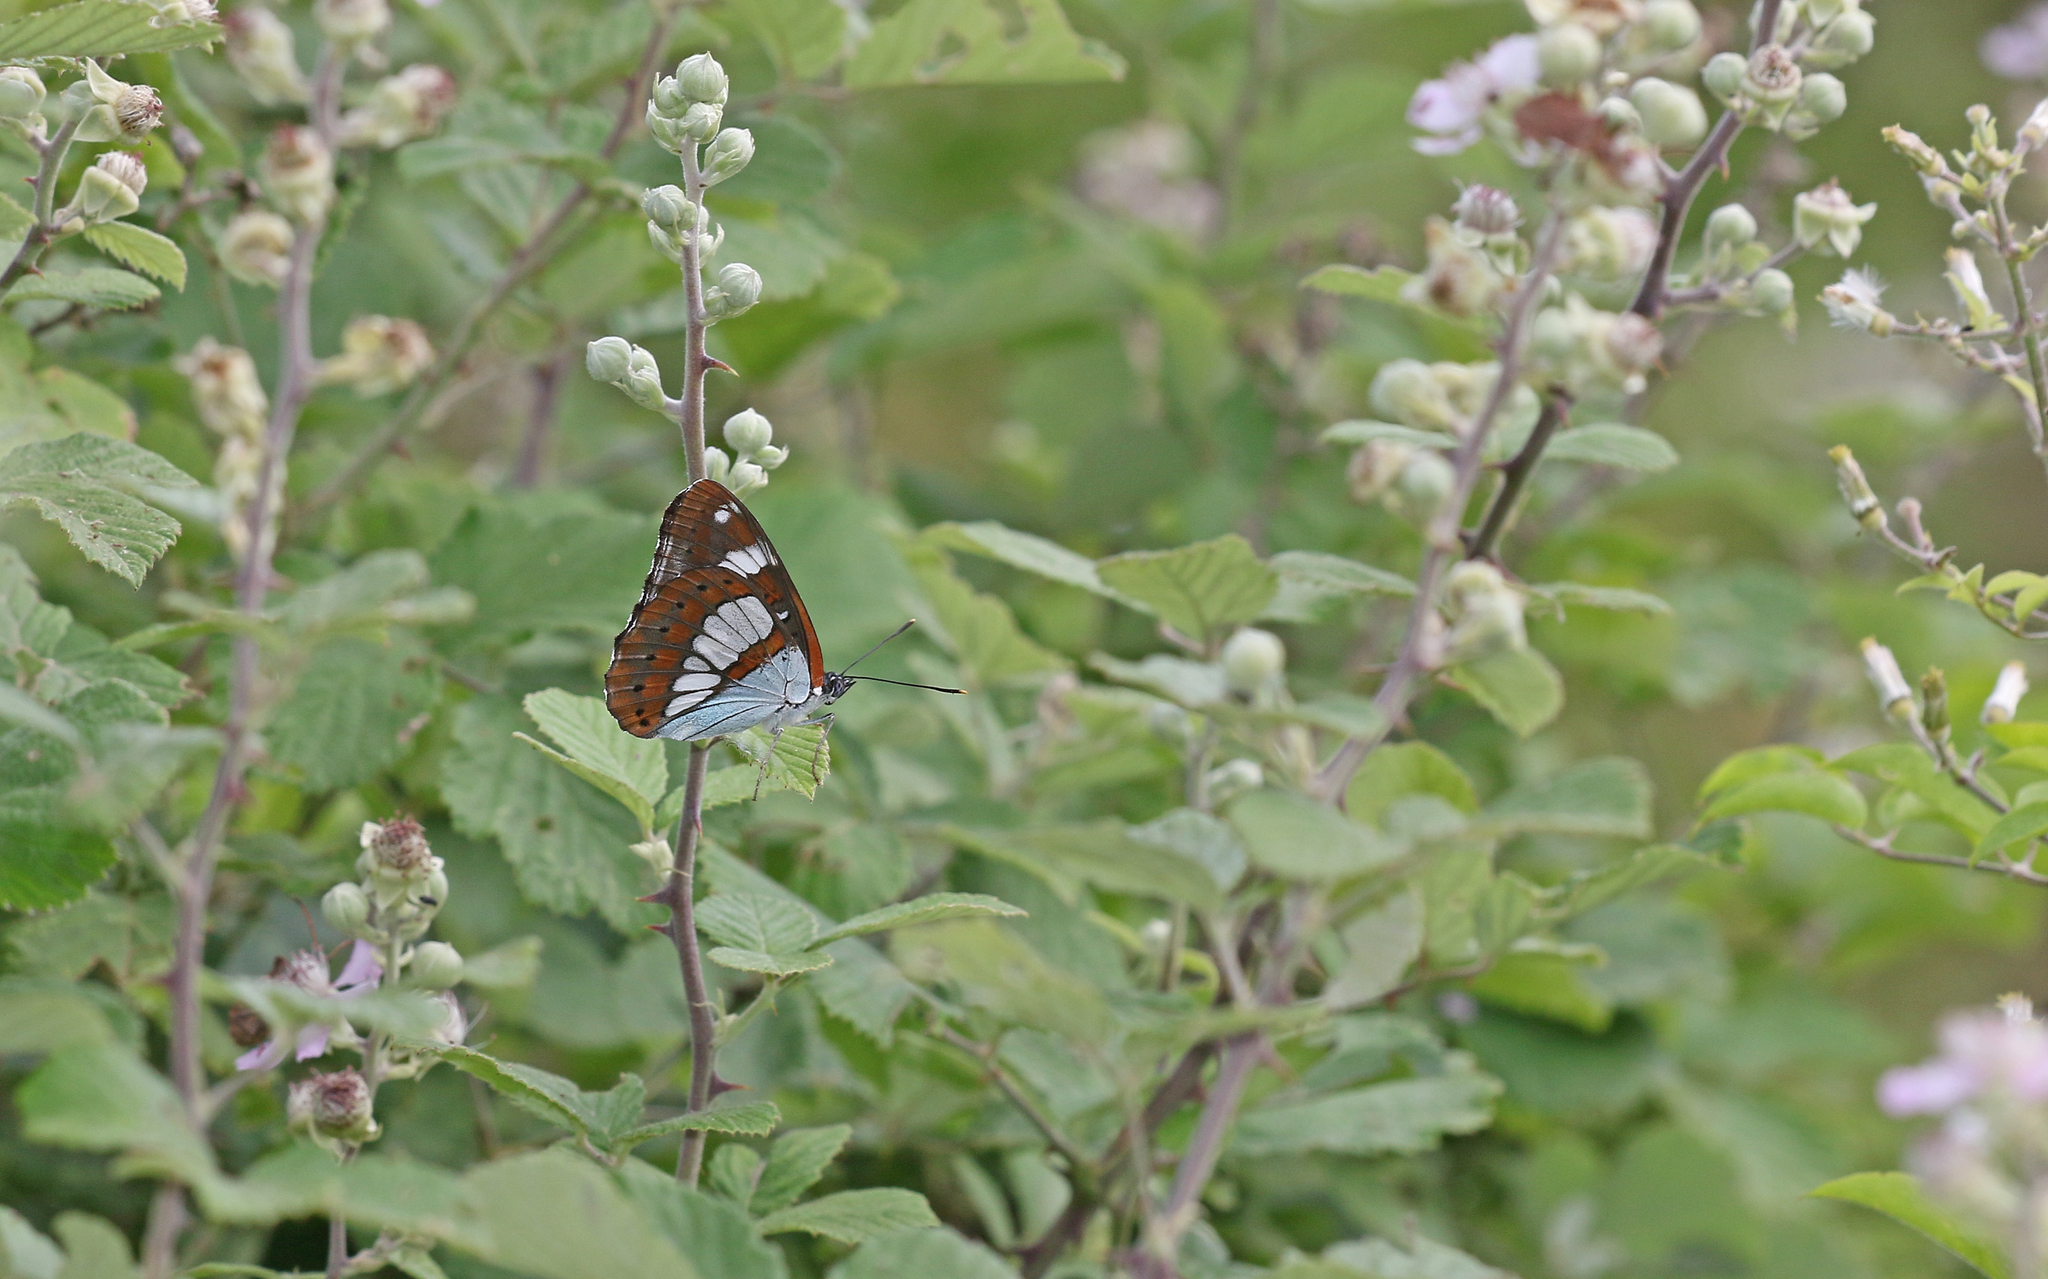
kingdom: Animalia
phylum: Arthropoda
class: Insecta
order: Lepidoptera
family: Nymphalidae
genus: Limenitis
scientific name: Limenitis reducta
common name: Southern white admiral
